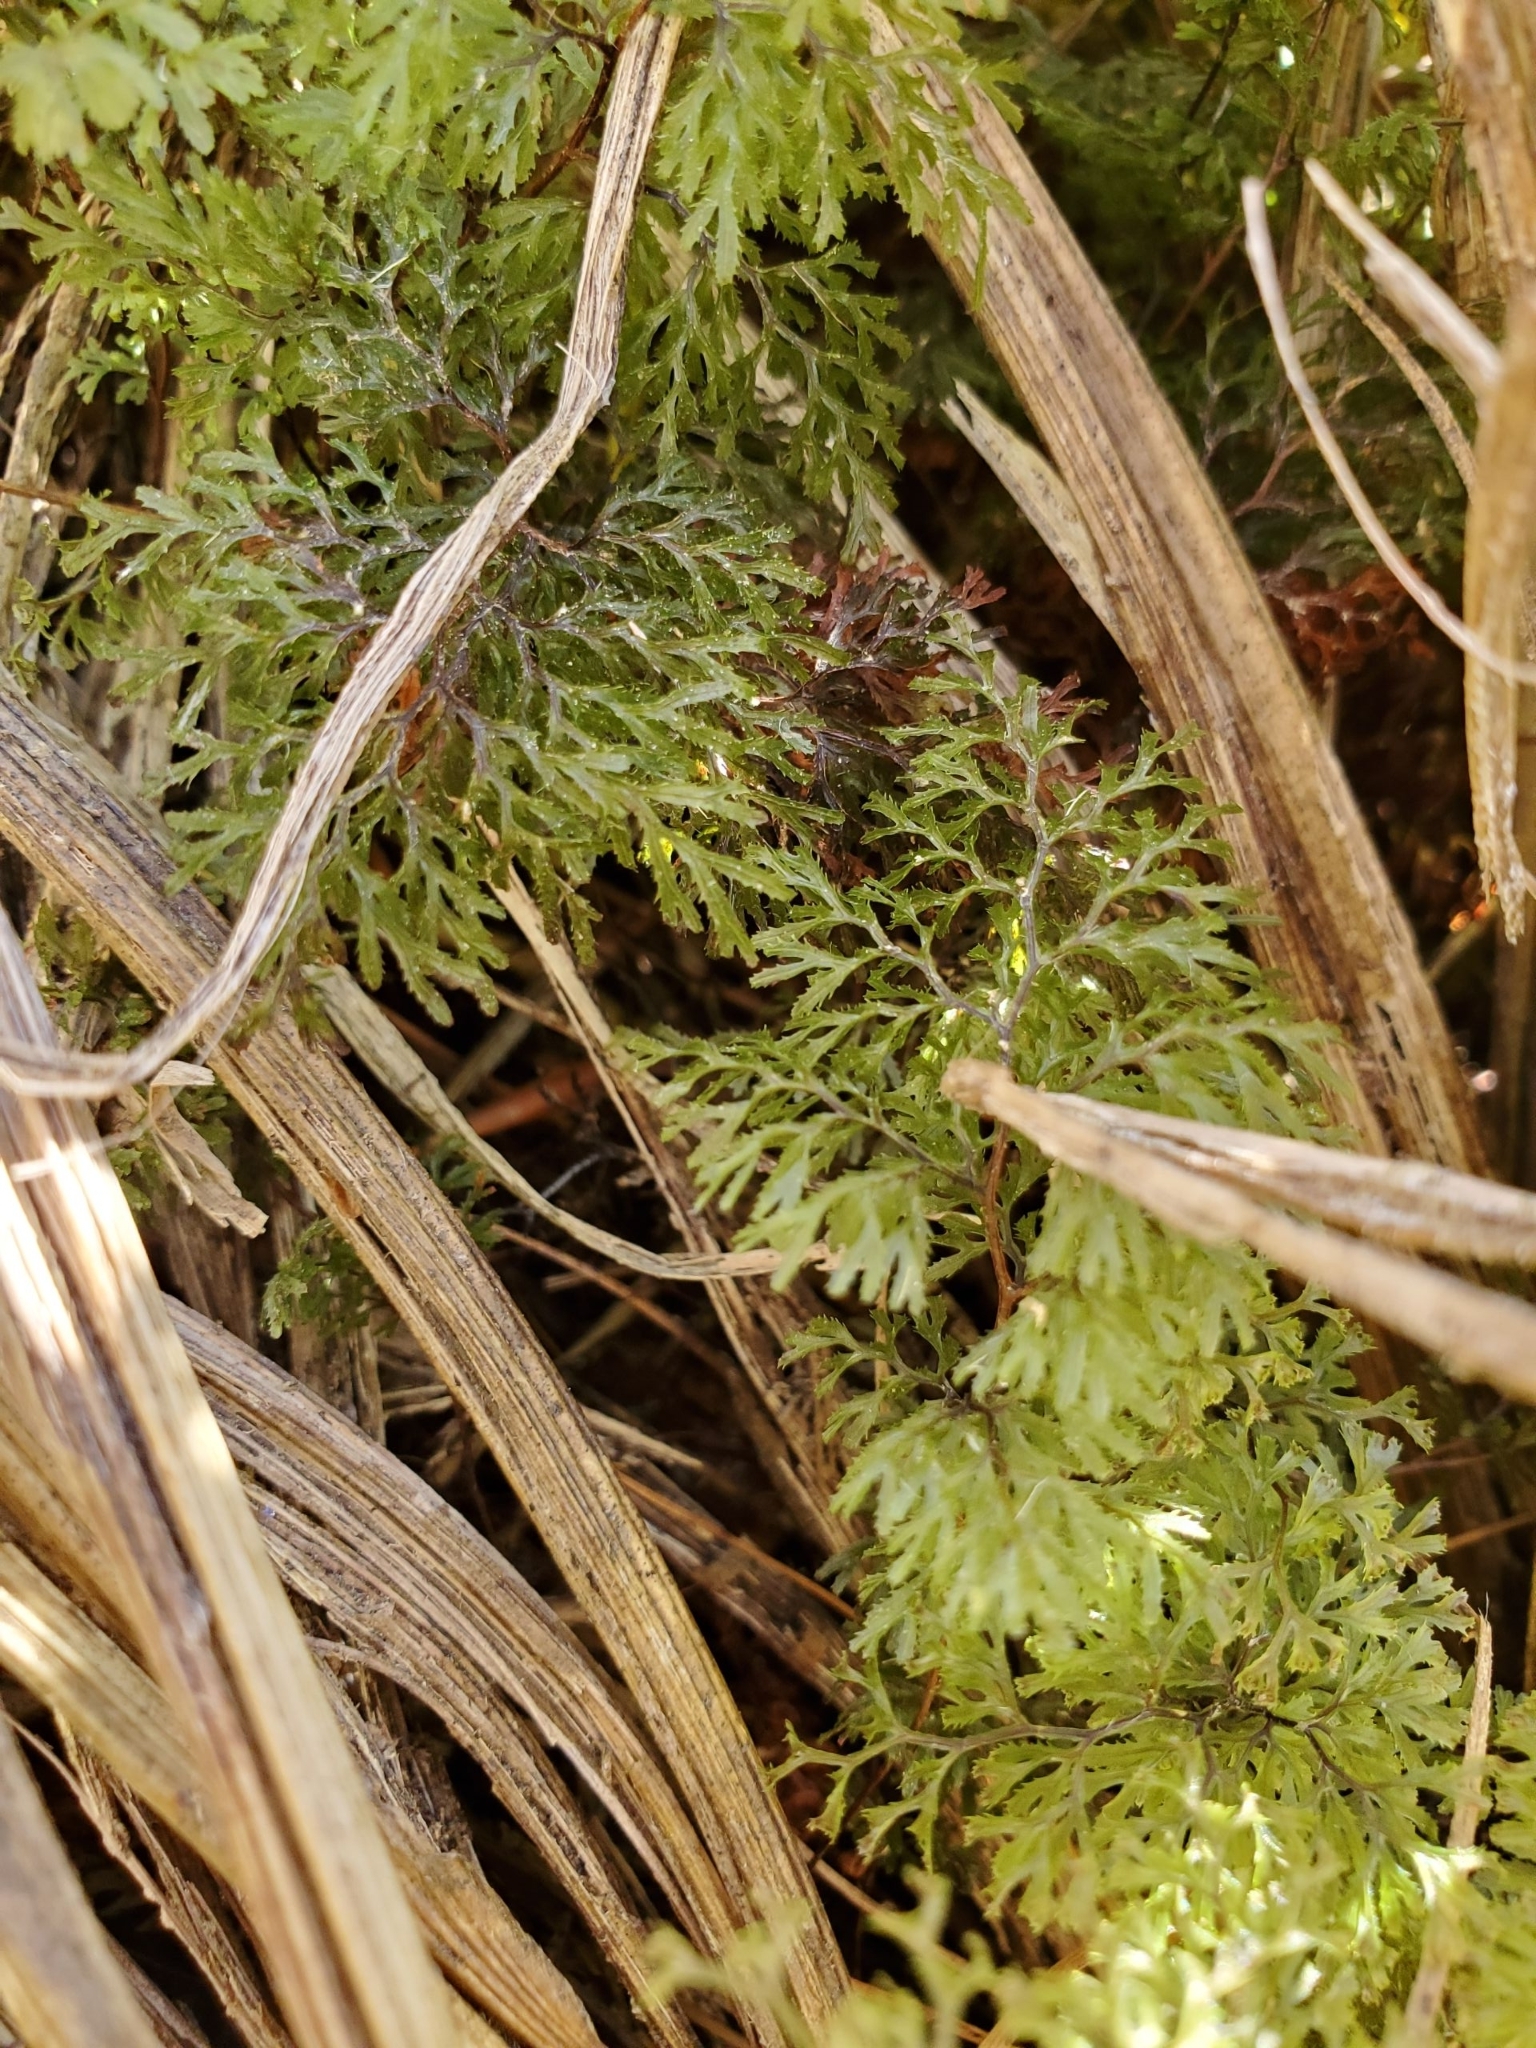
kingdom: Plantae
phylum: Tracheophyta
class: Polypodiopsida
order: Hymenophyllales
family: Hymenophyllaceae
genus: Hymenophyllum
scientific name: Hymenophyllum multifidum
